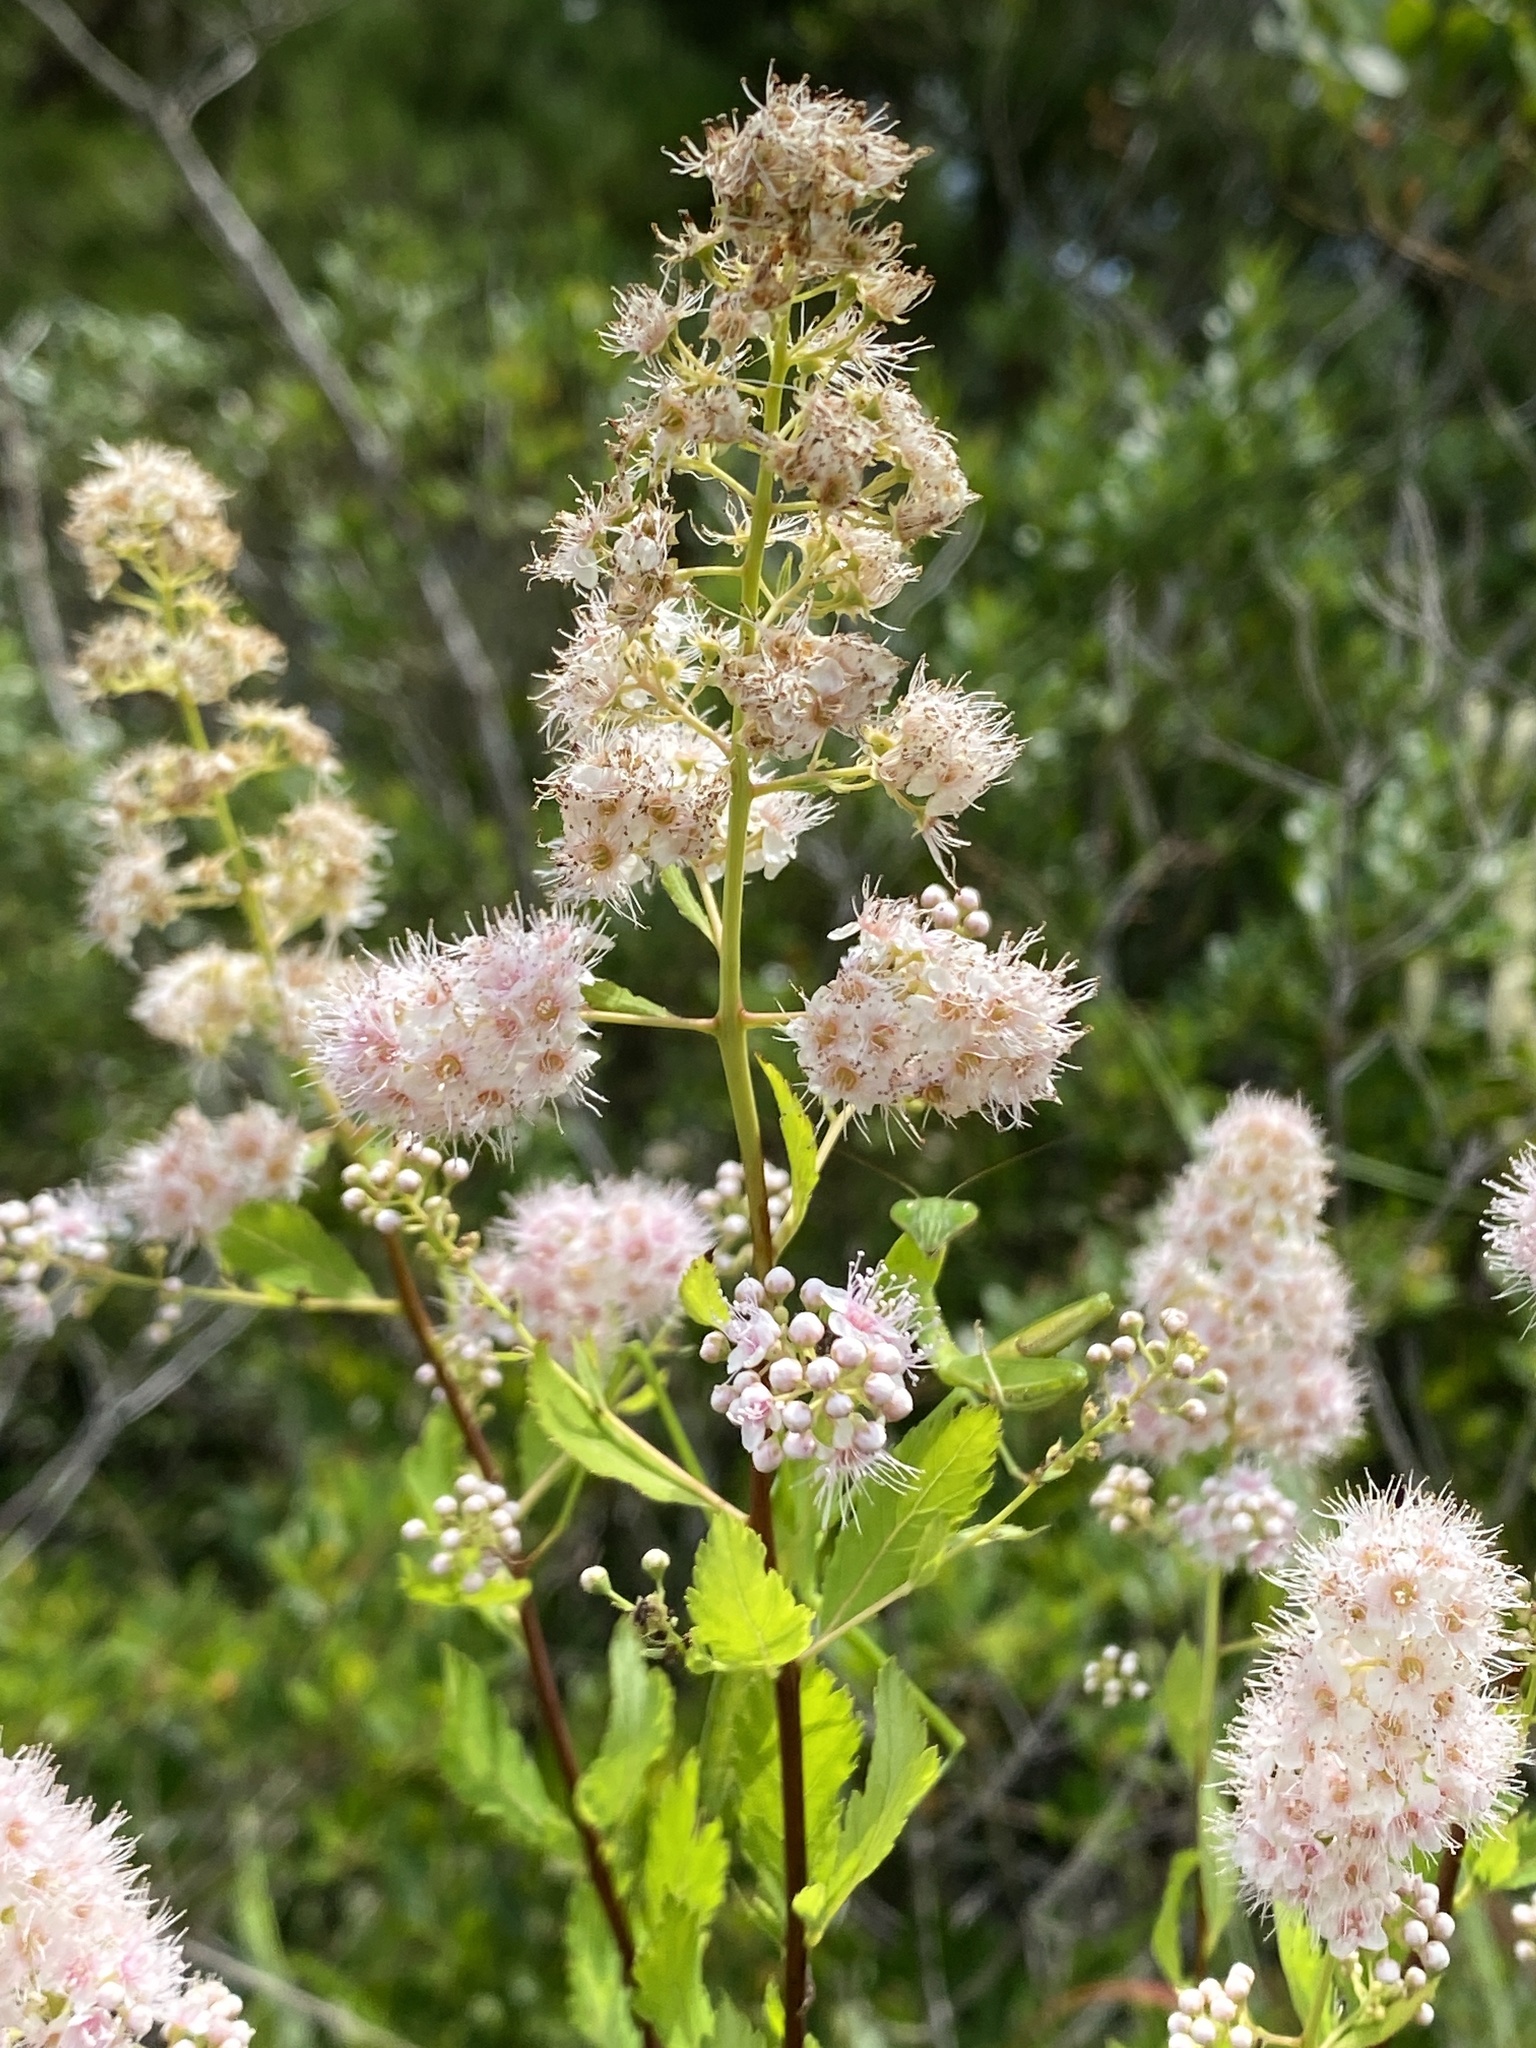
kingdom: Plantae
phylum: Tracheophyta
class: Magnoliopsida
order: Rosales
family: Rosaceae
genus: Spiraea
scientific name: Spiraea alba
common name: Pale bridewort
